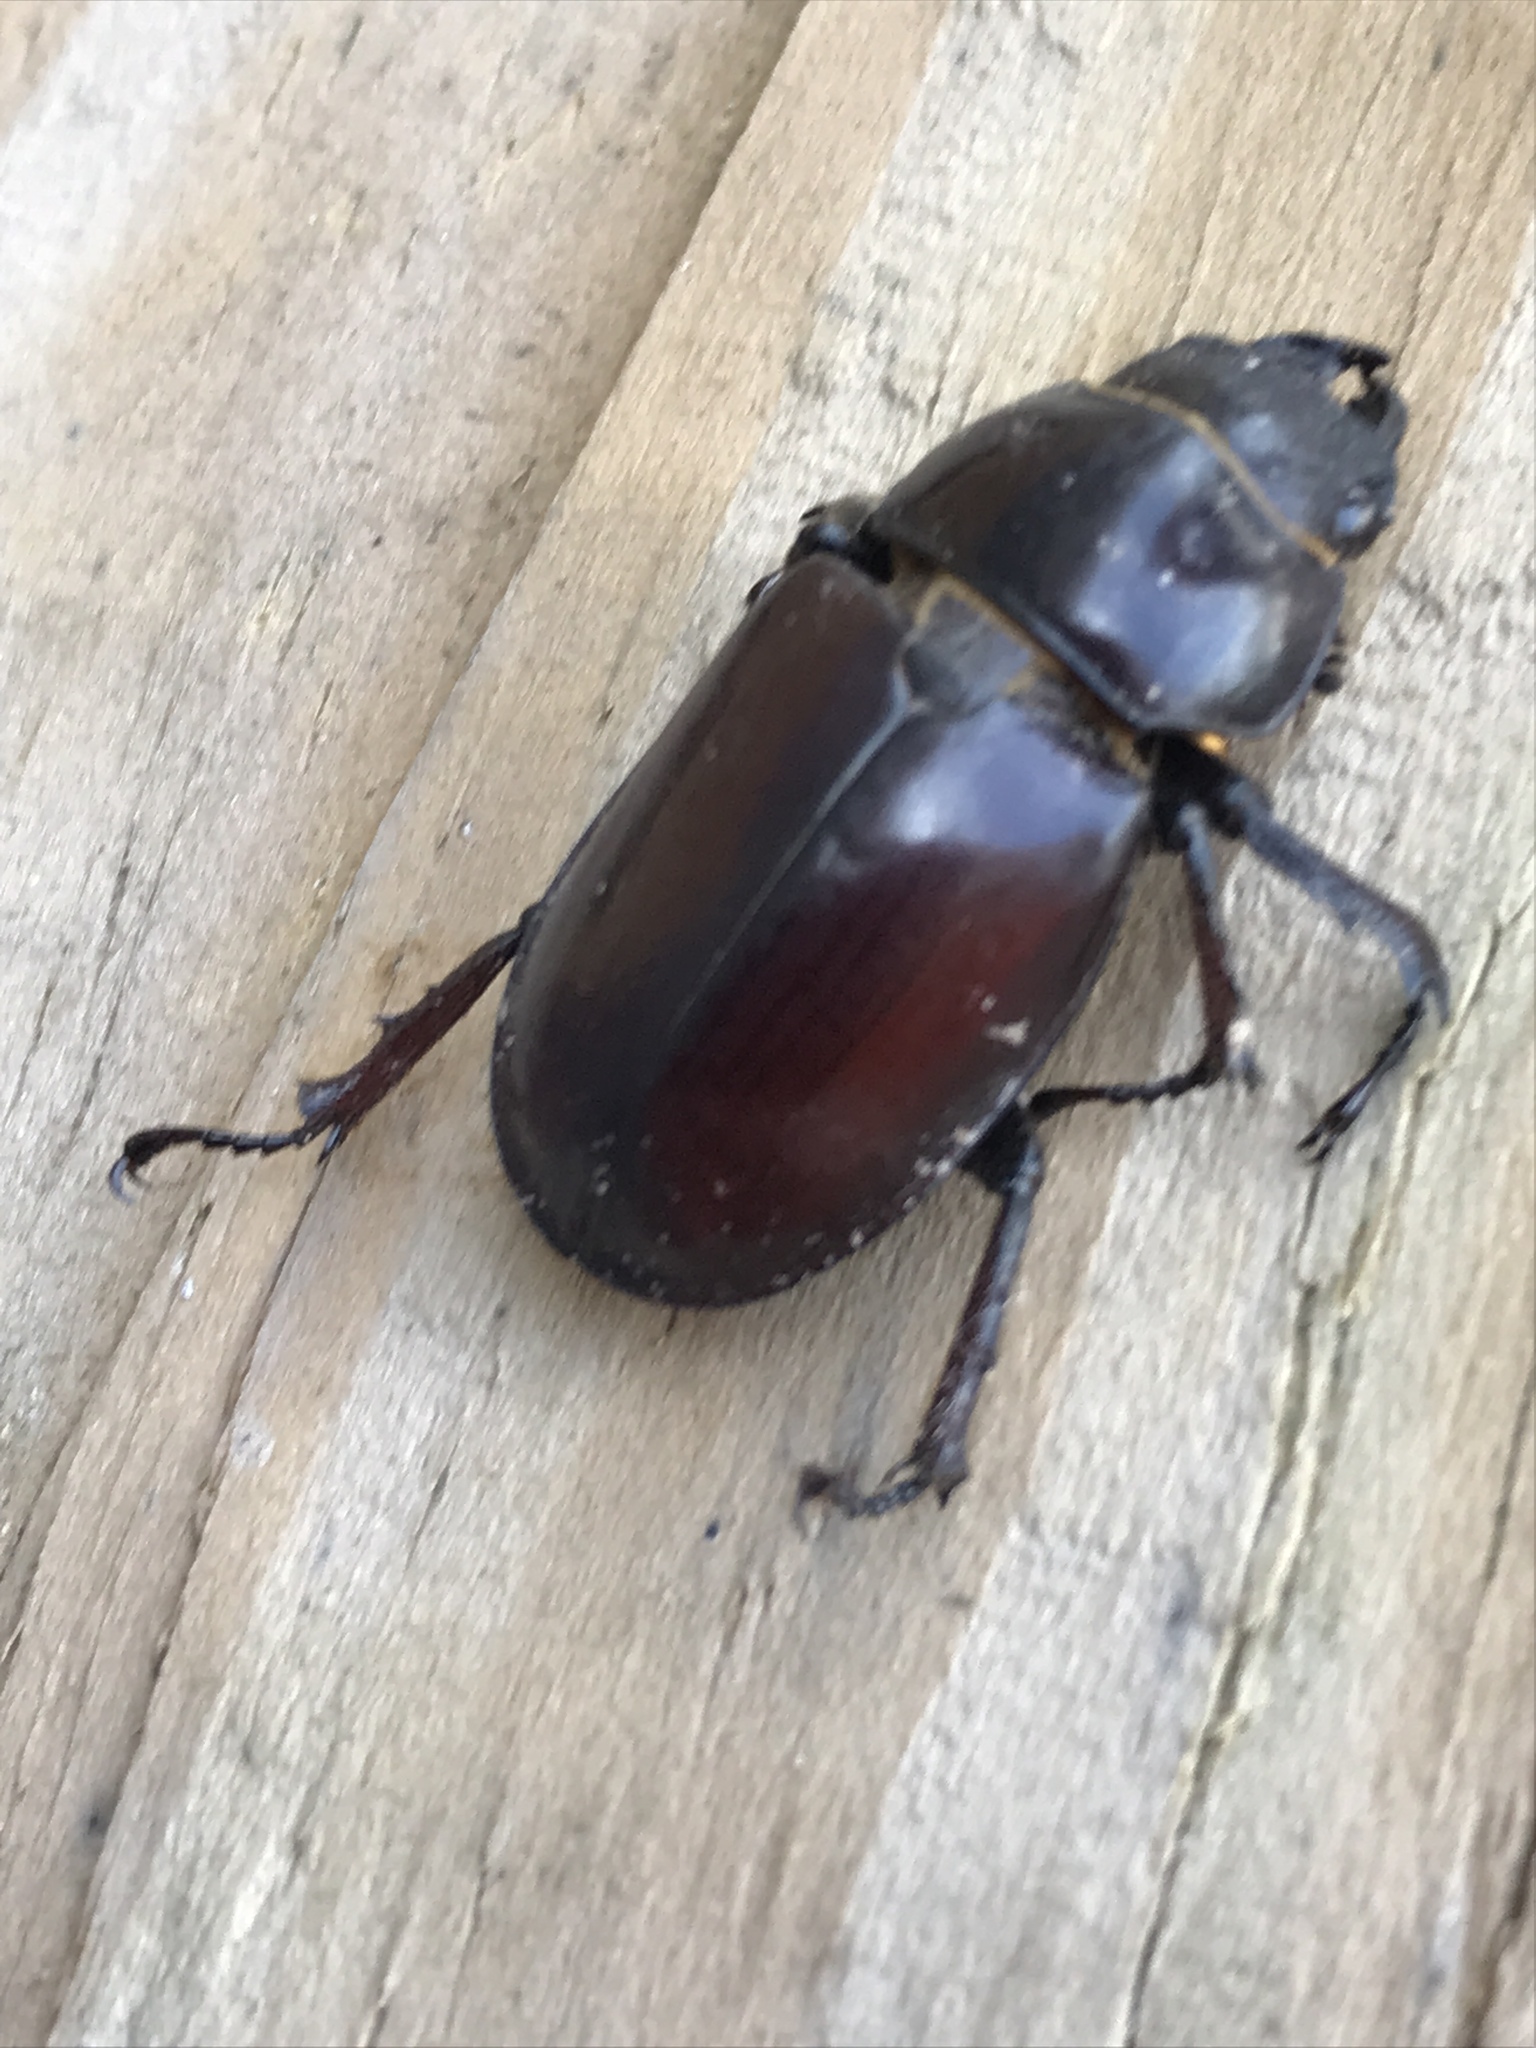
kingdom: Animalia
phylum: Arthropoda
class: Insecta
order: Coleoptera
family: Lucanidae
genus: Lucanus
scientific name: Lucanus elaphus
